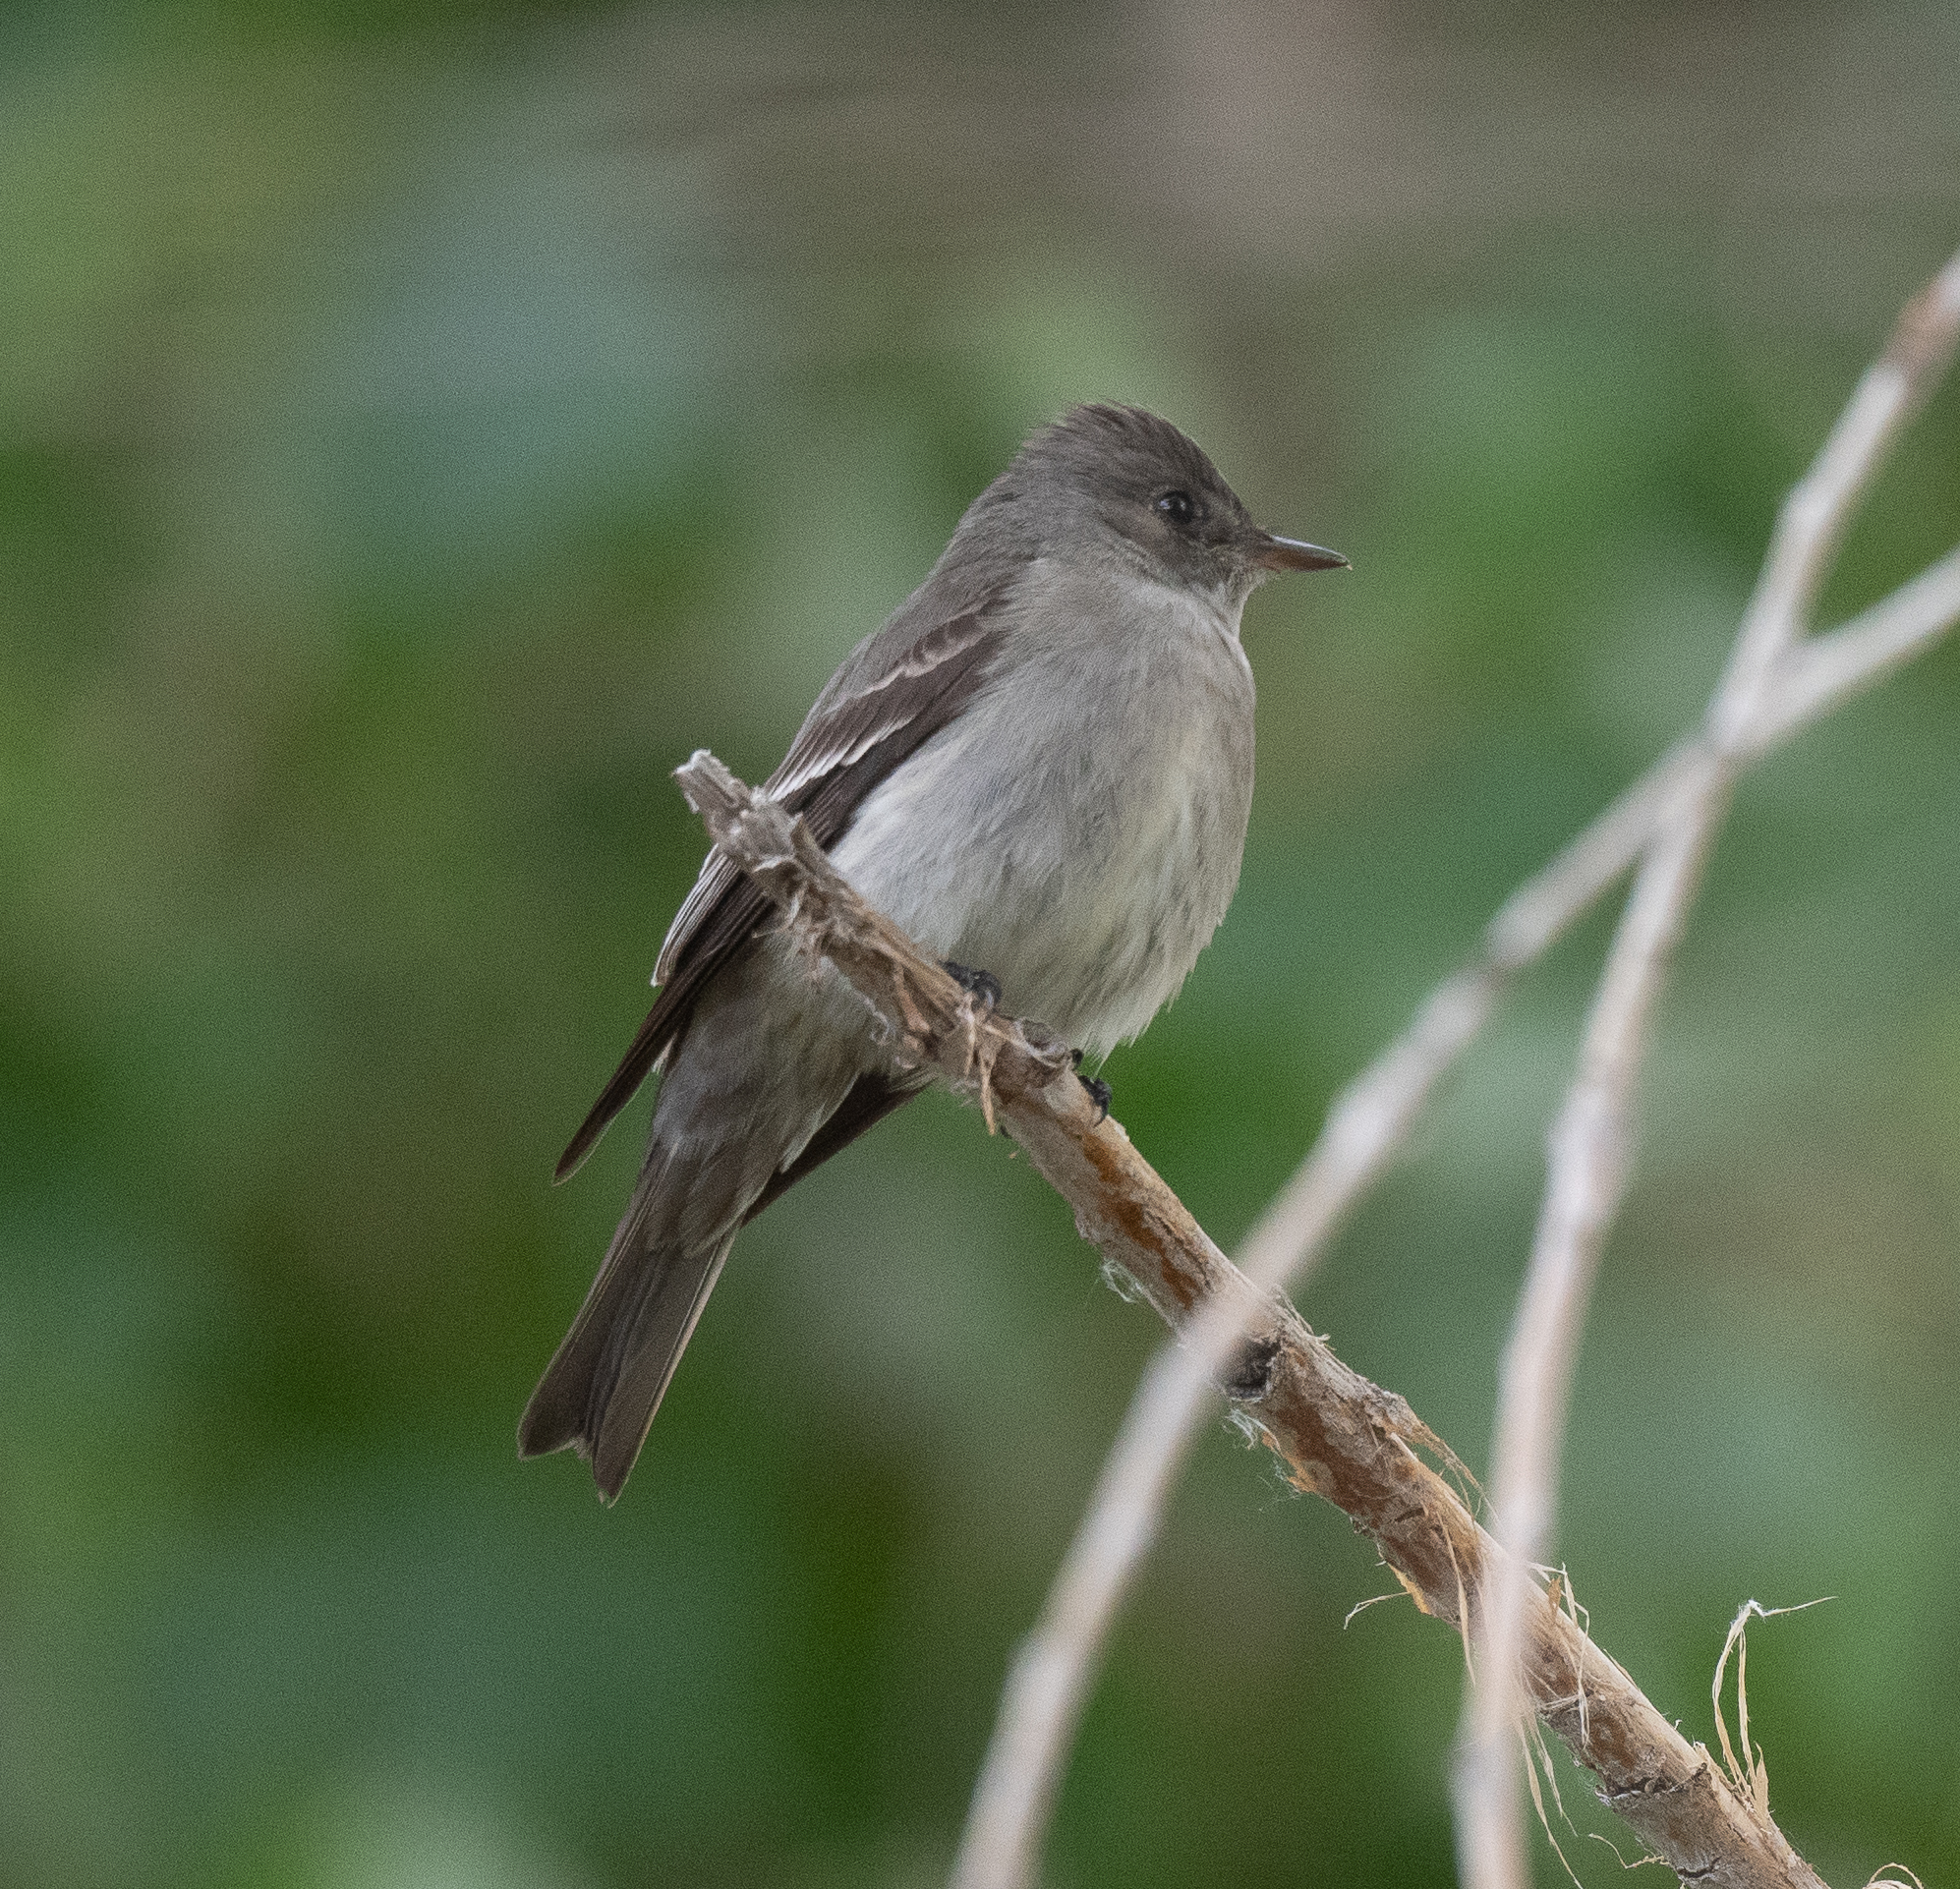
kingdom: Animalia
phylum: Chordata
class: Aves
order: Passeriformes
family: Tyrannidae
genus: Contopus
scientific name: Contopus sordidulus
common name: Western wood-pewee
